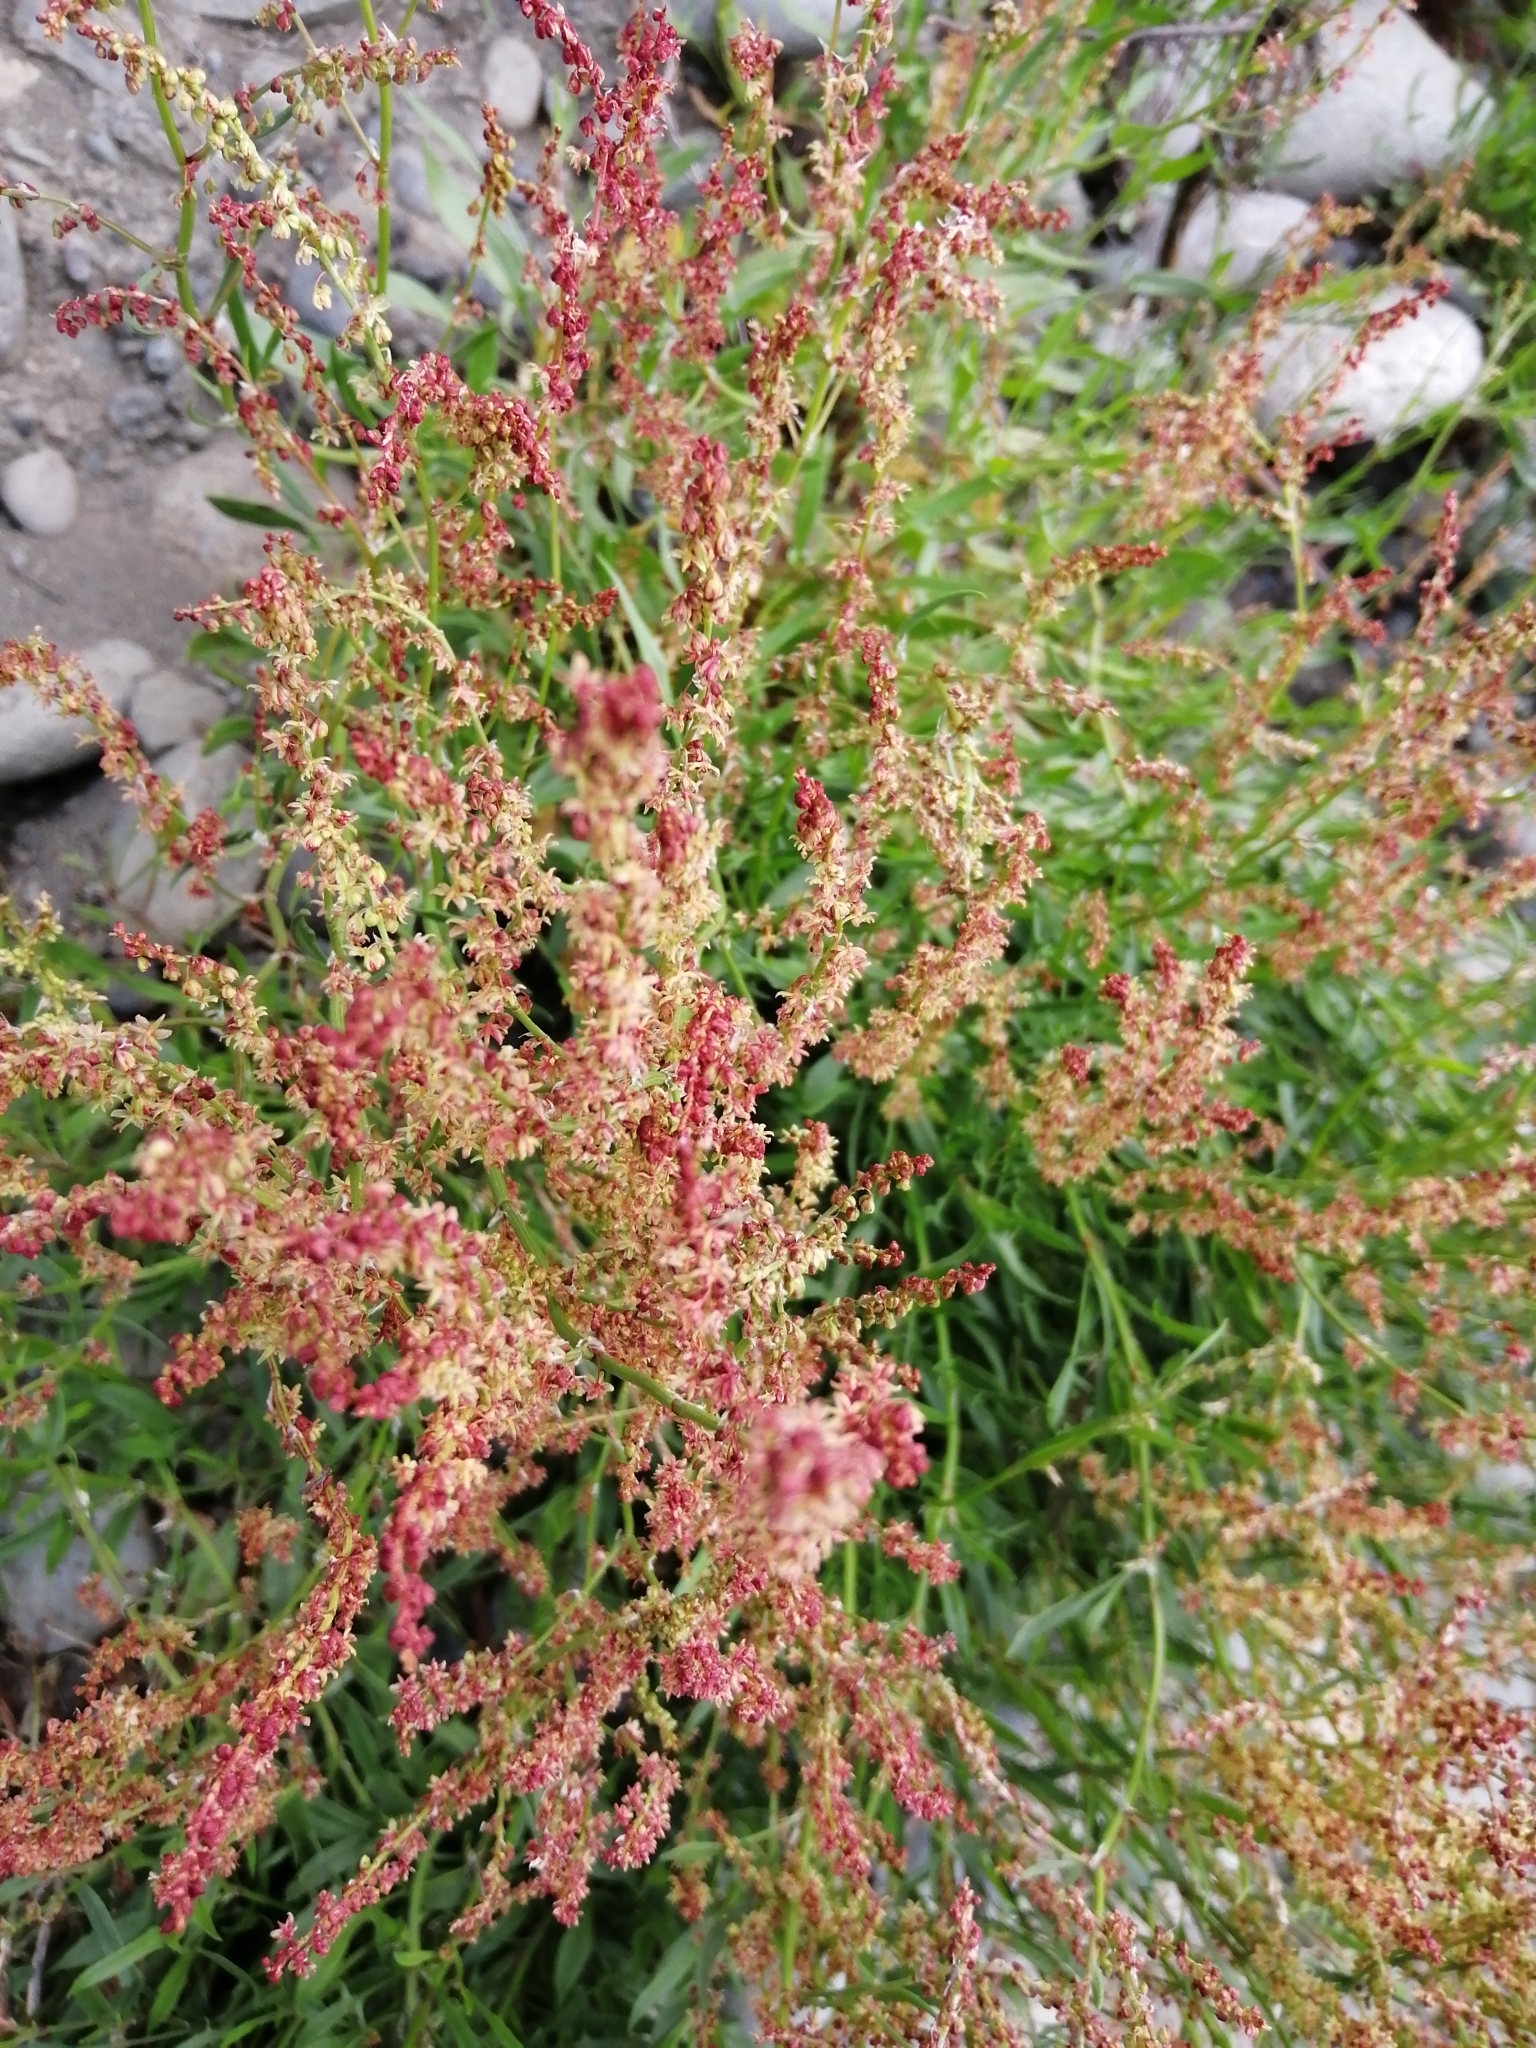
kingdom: Plantae
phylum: Tracheophyta
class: Magnoliopsida
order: Caryophyllales
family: Polygonaceae
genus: Rumex
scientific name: Rumex acetosella
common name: Common sheep sorrel
